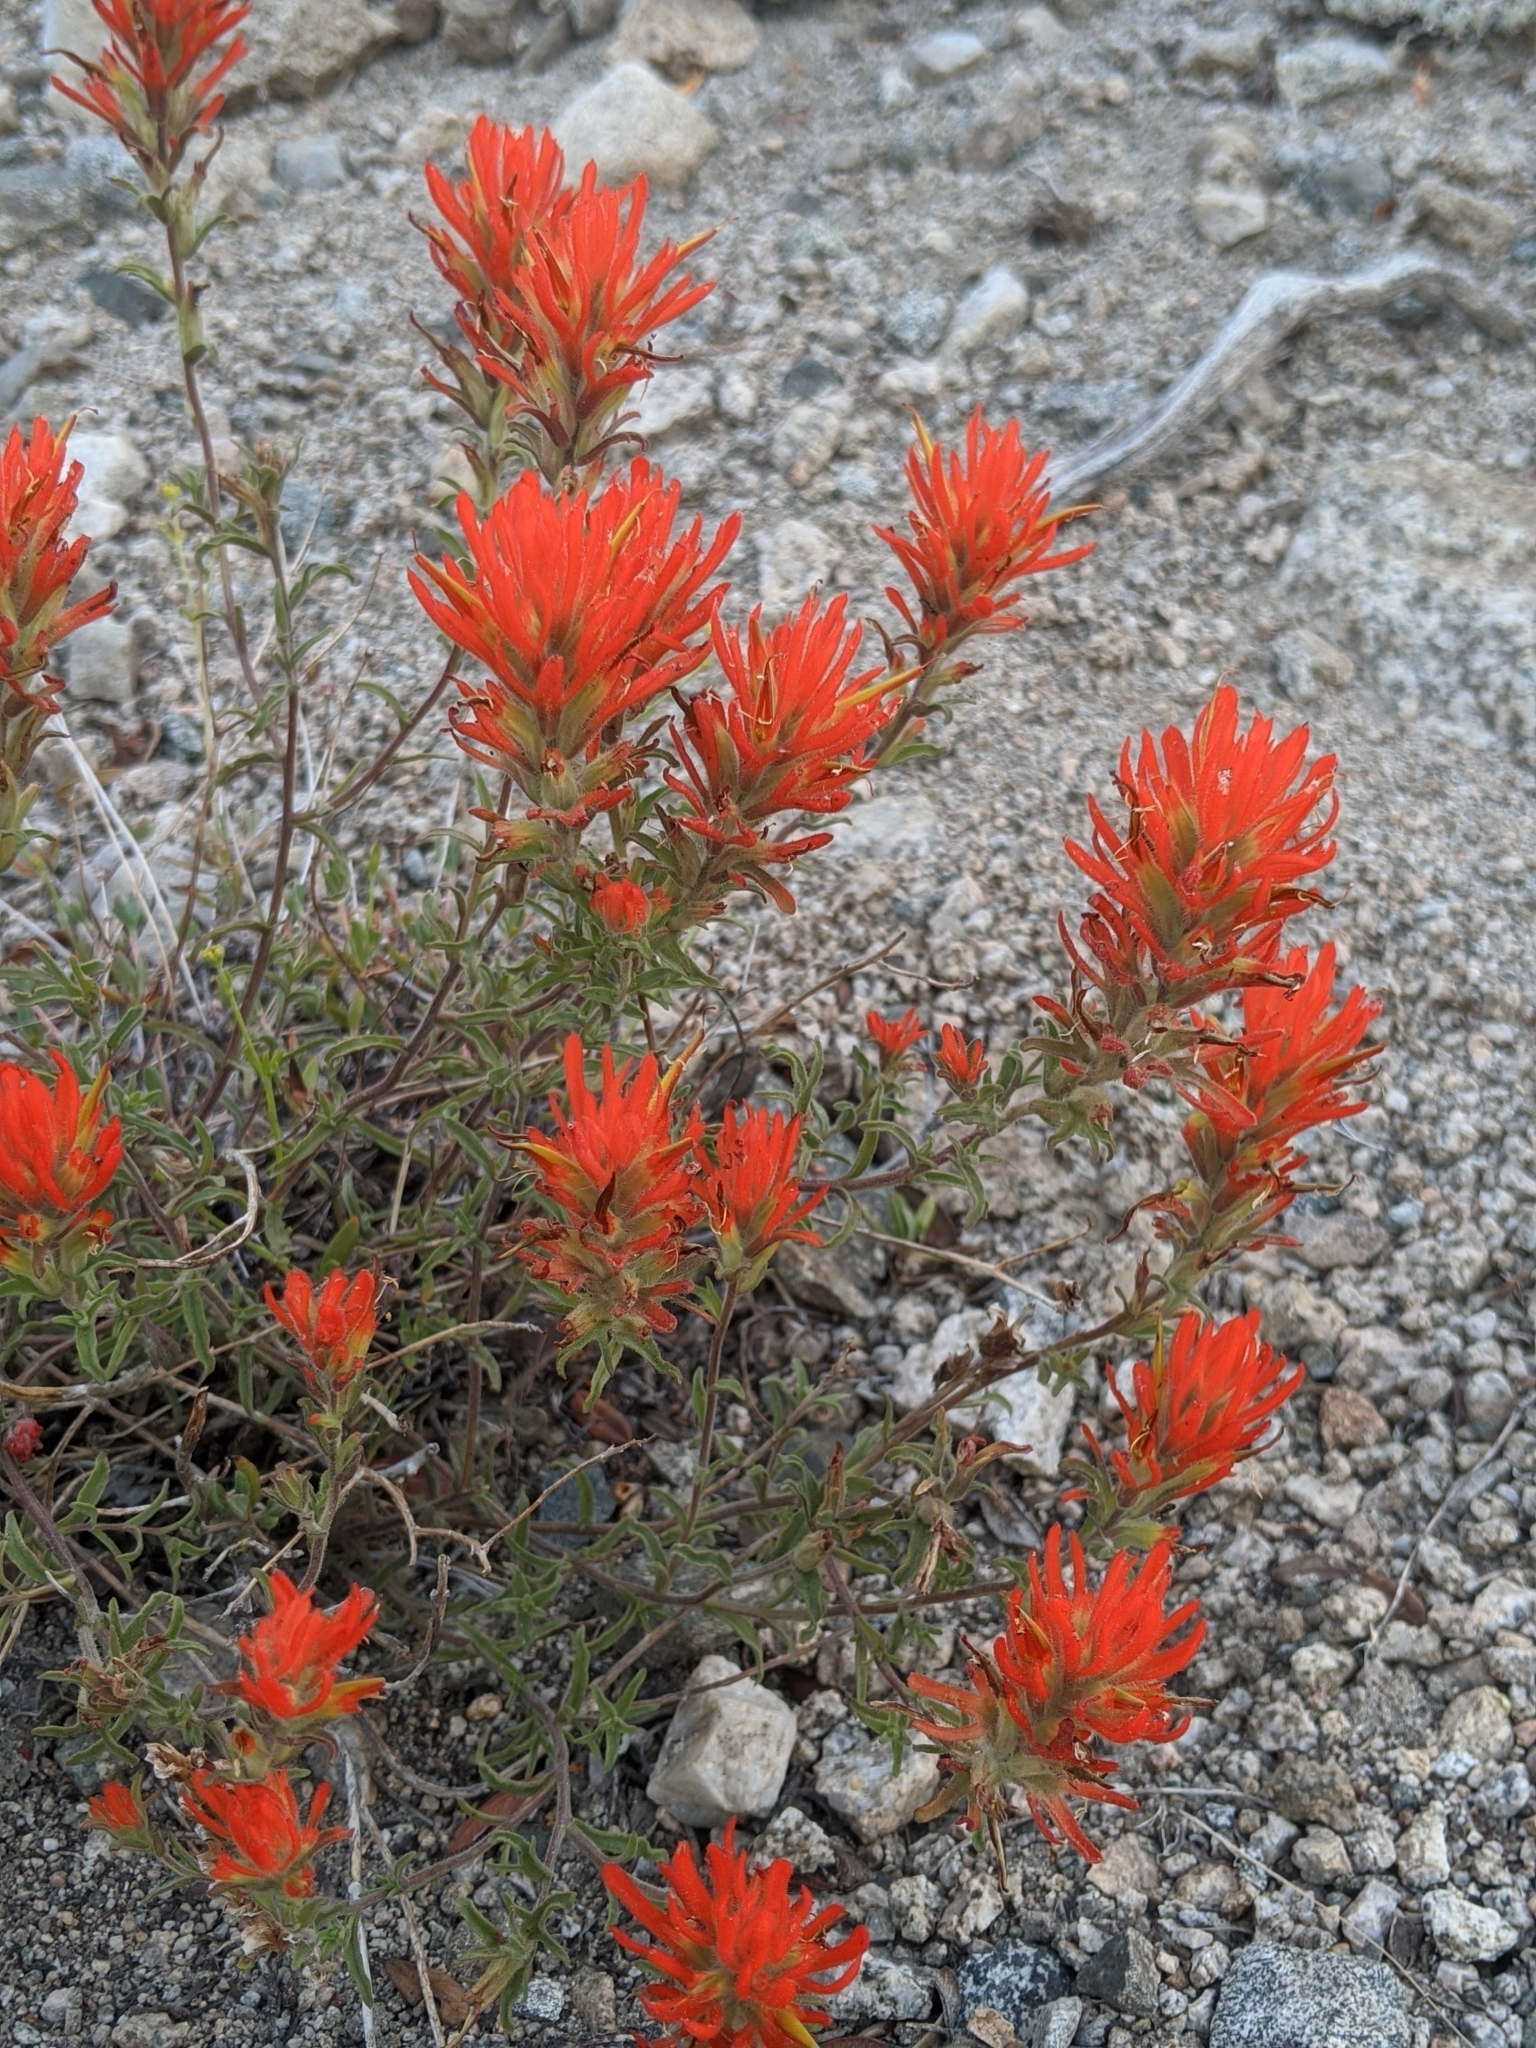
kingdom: Plantae
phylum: Tracheophyta
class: Magnoliopsida
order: Lamiales
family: Orobanchaceae
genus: Castilleja
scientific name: Castilleja applegatei
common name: Wavy-leaf paintbrush
